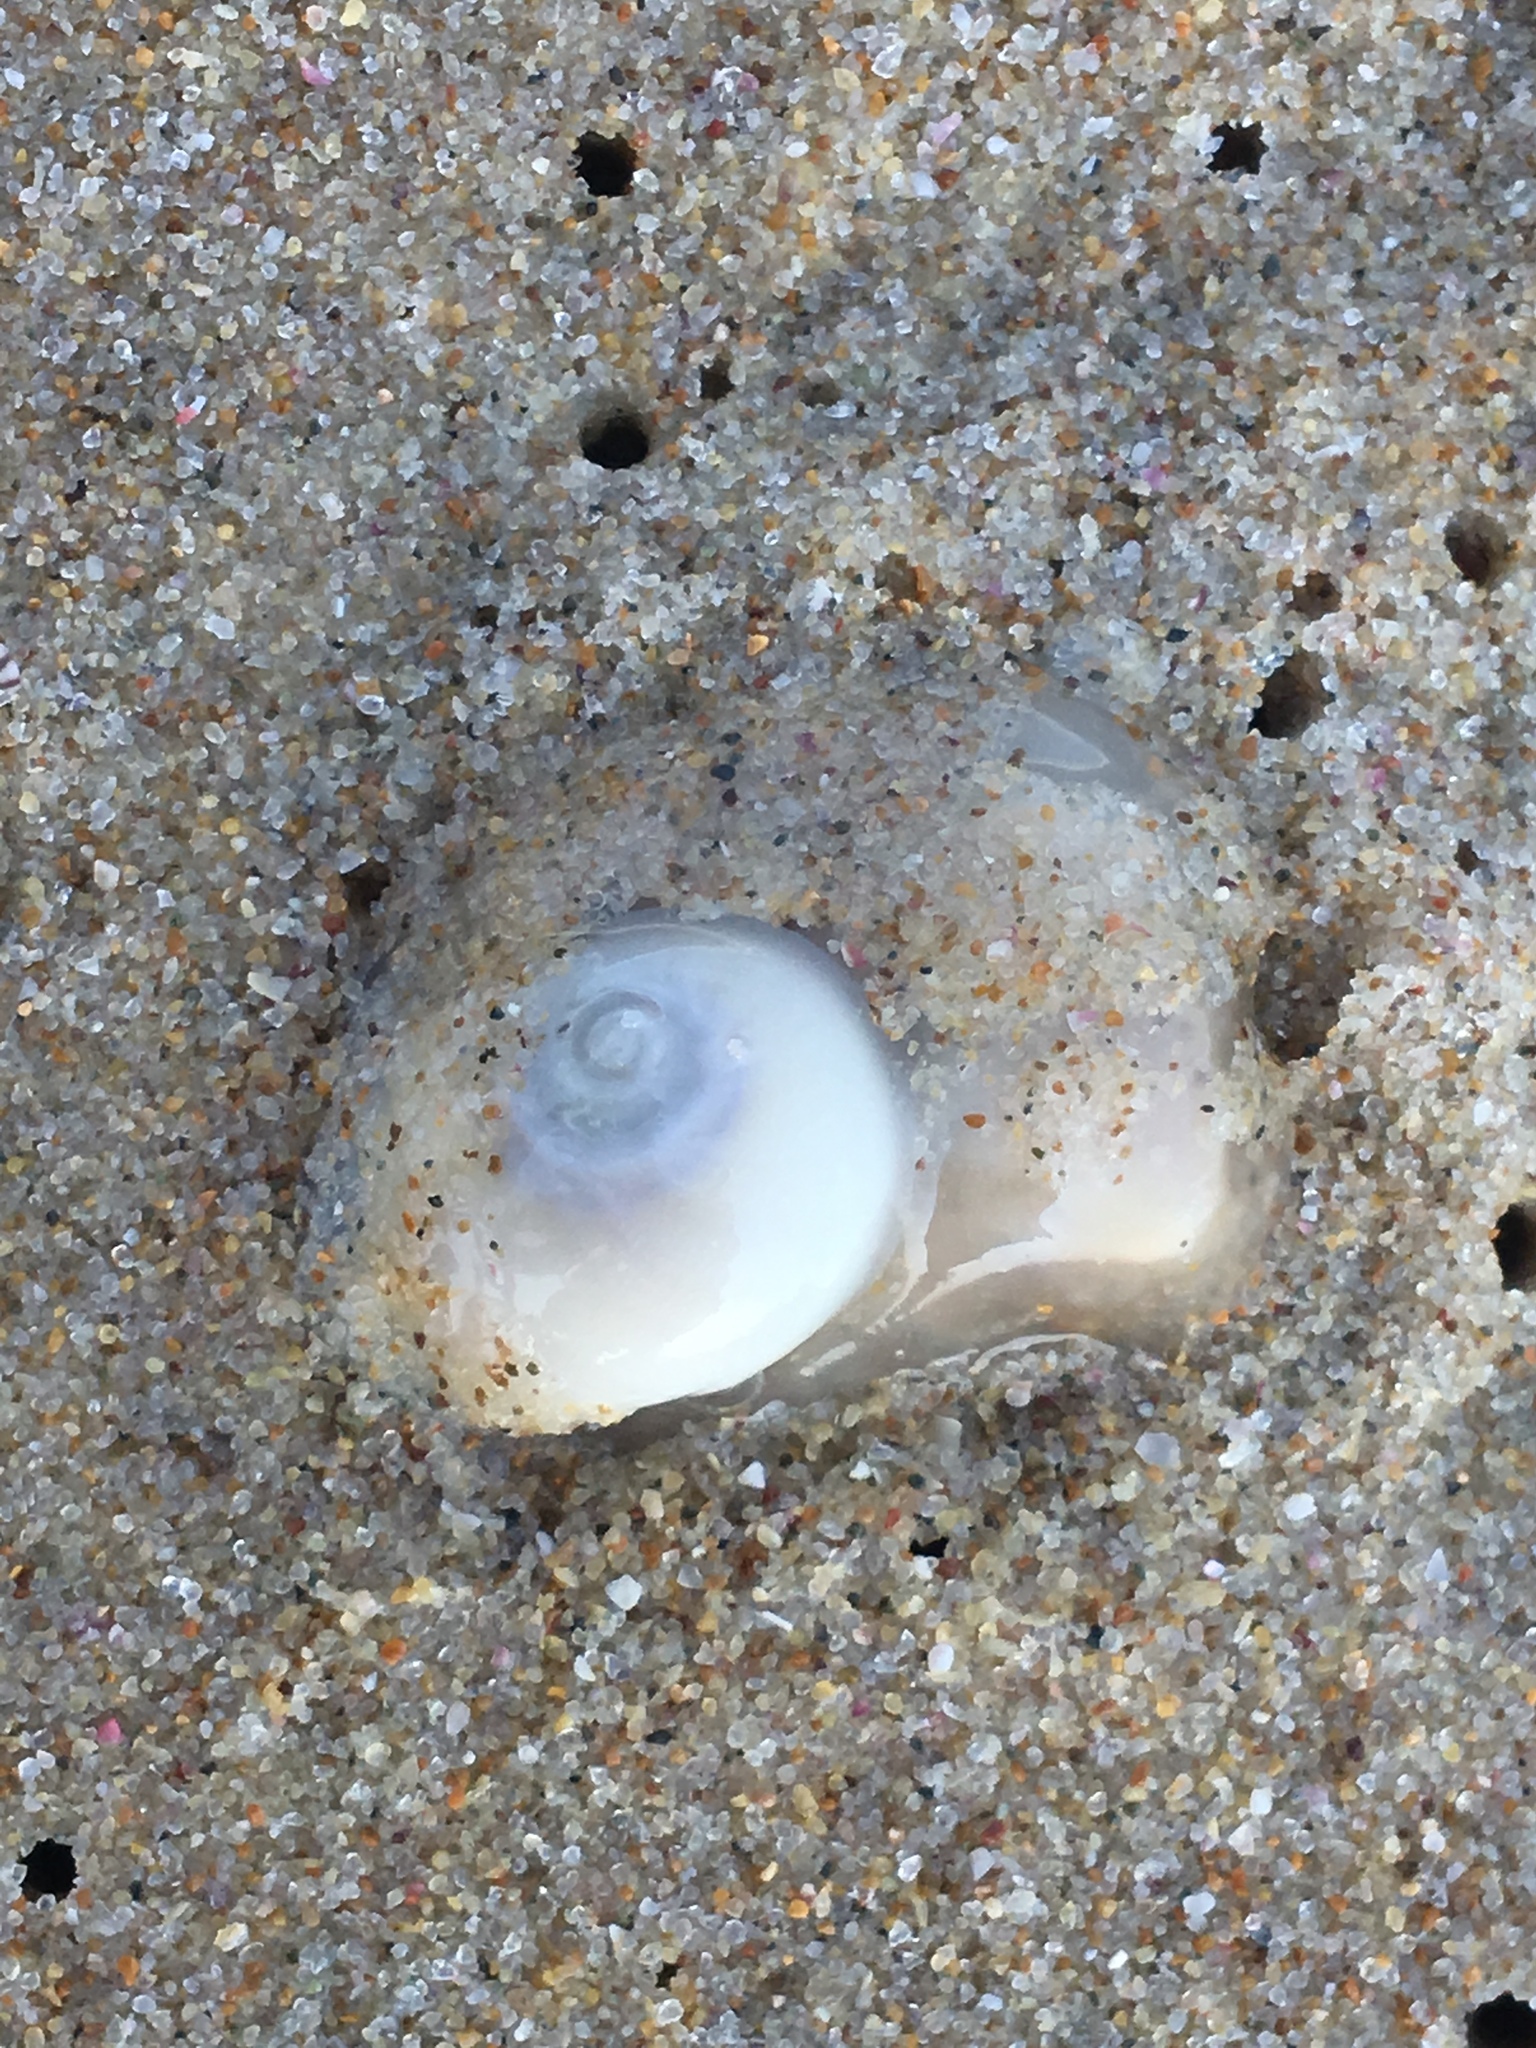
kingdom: Animalia
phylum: Mollusca
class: Gastropoda
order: Littorinimorpha
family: Naticidae
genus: Conuber
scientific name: Conuber incei
